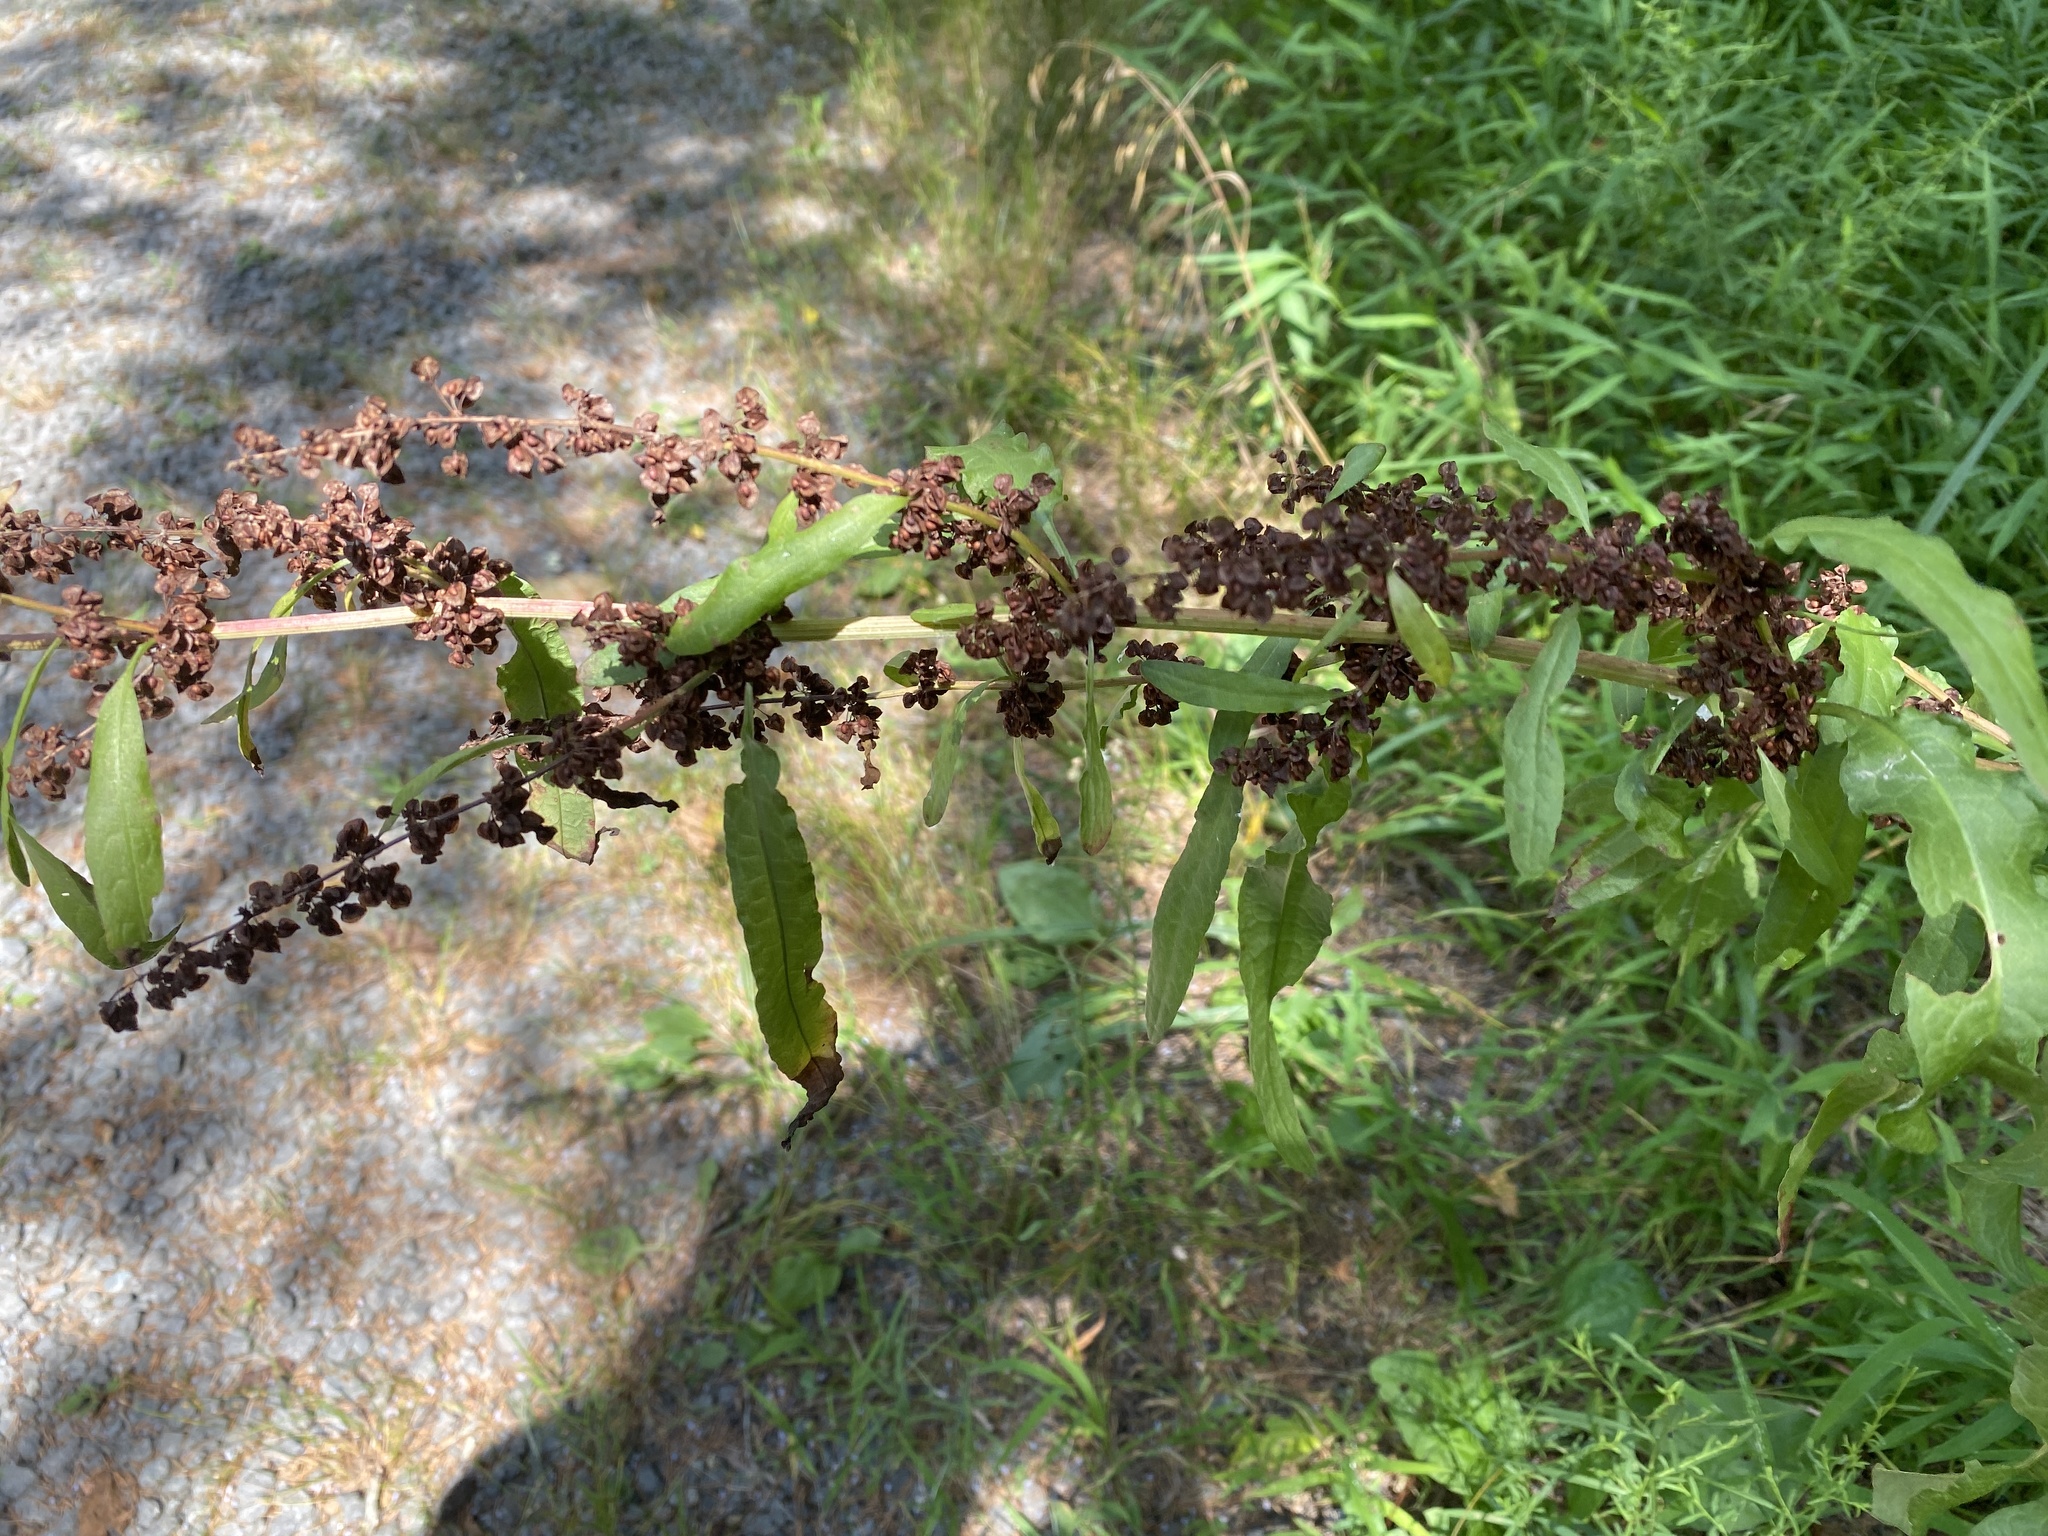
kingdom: Plantae
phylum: Tracheophyta
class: Magnoliopsida
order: Caryophyllales
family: Polygonaceae
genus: Rumex
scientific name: Rumex crispus
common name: Curled dock
